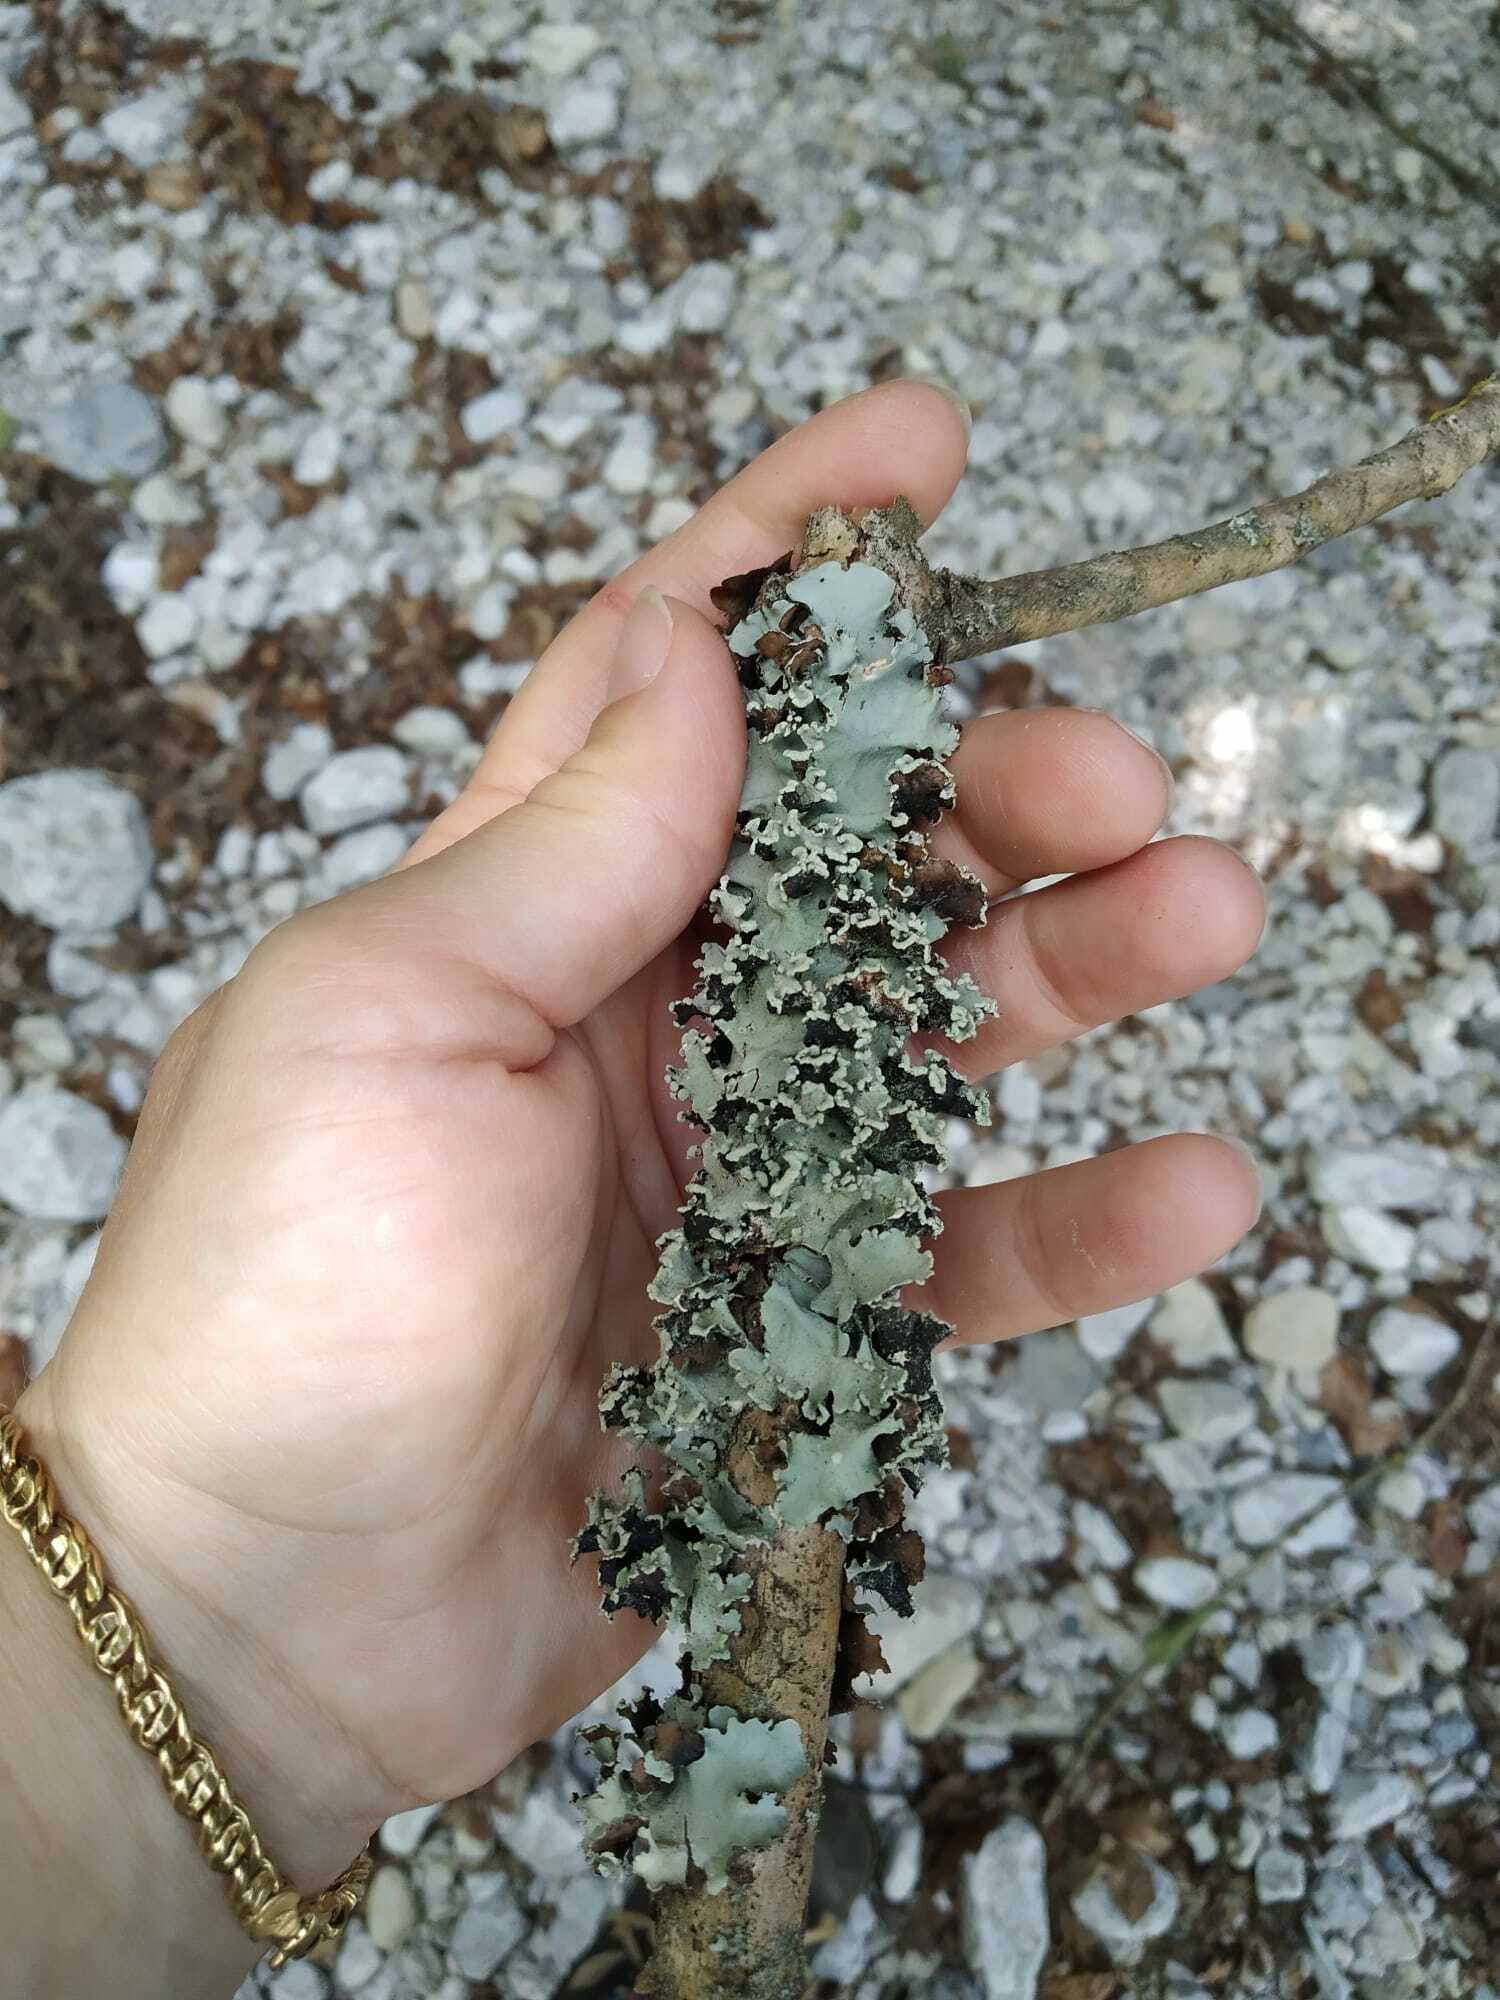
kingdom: Fungi
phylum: Ascomycota
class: Lecanoromycetes
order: Lecanorales
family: Parmeliaceae
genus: Parmotrema
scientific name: Parmotrema
